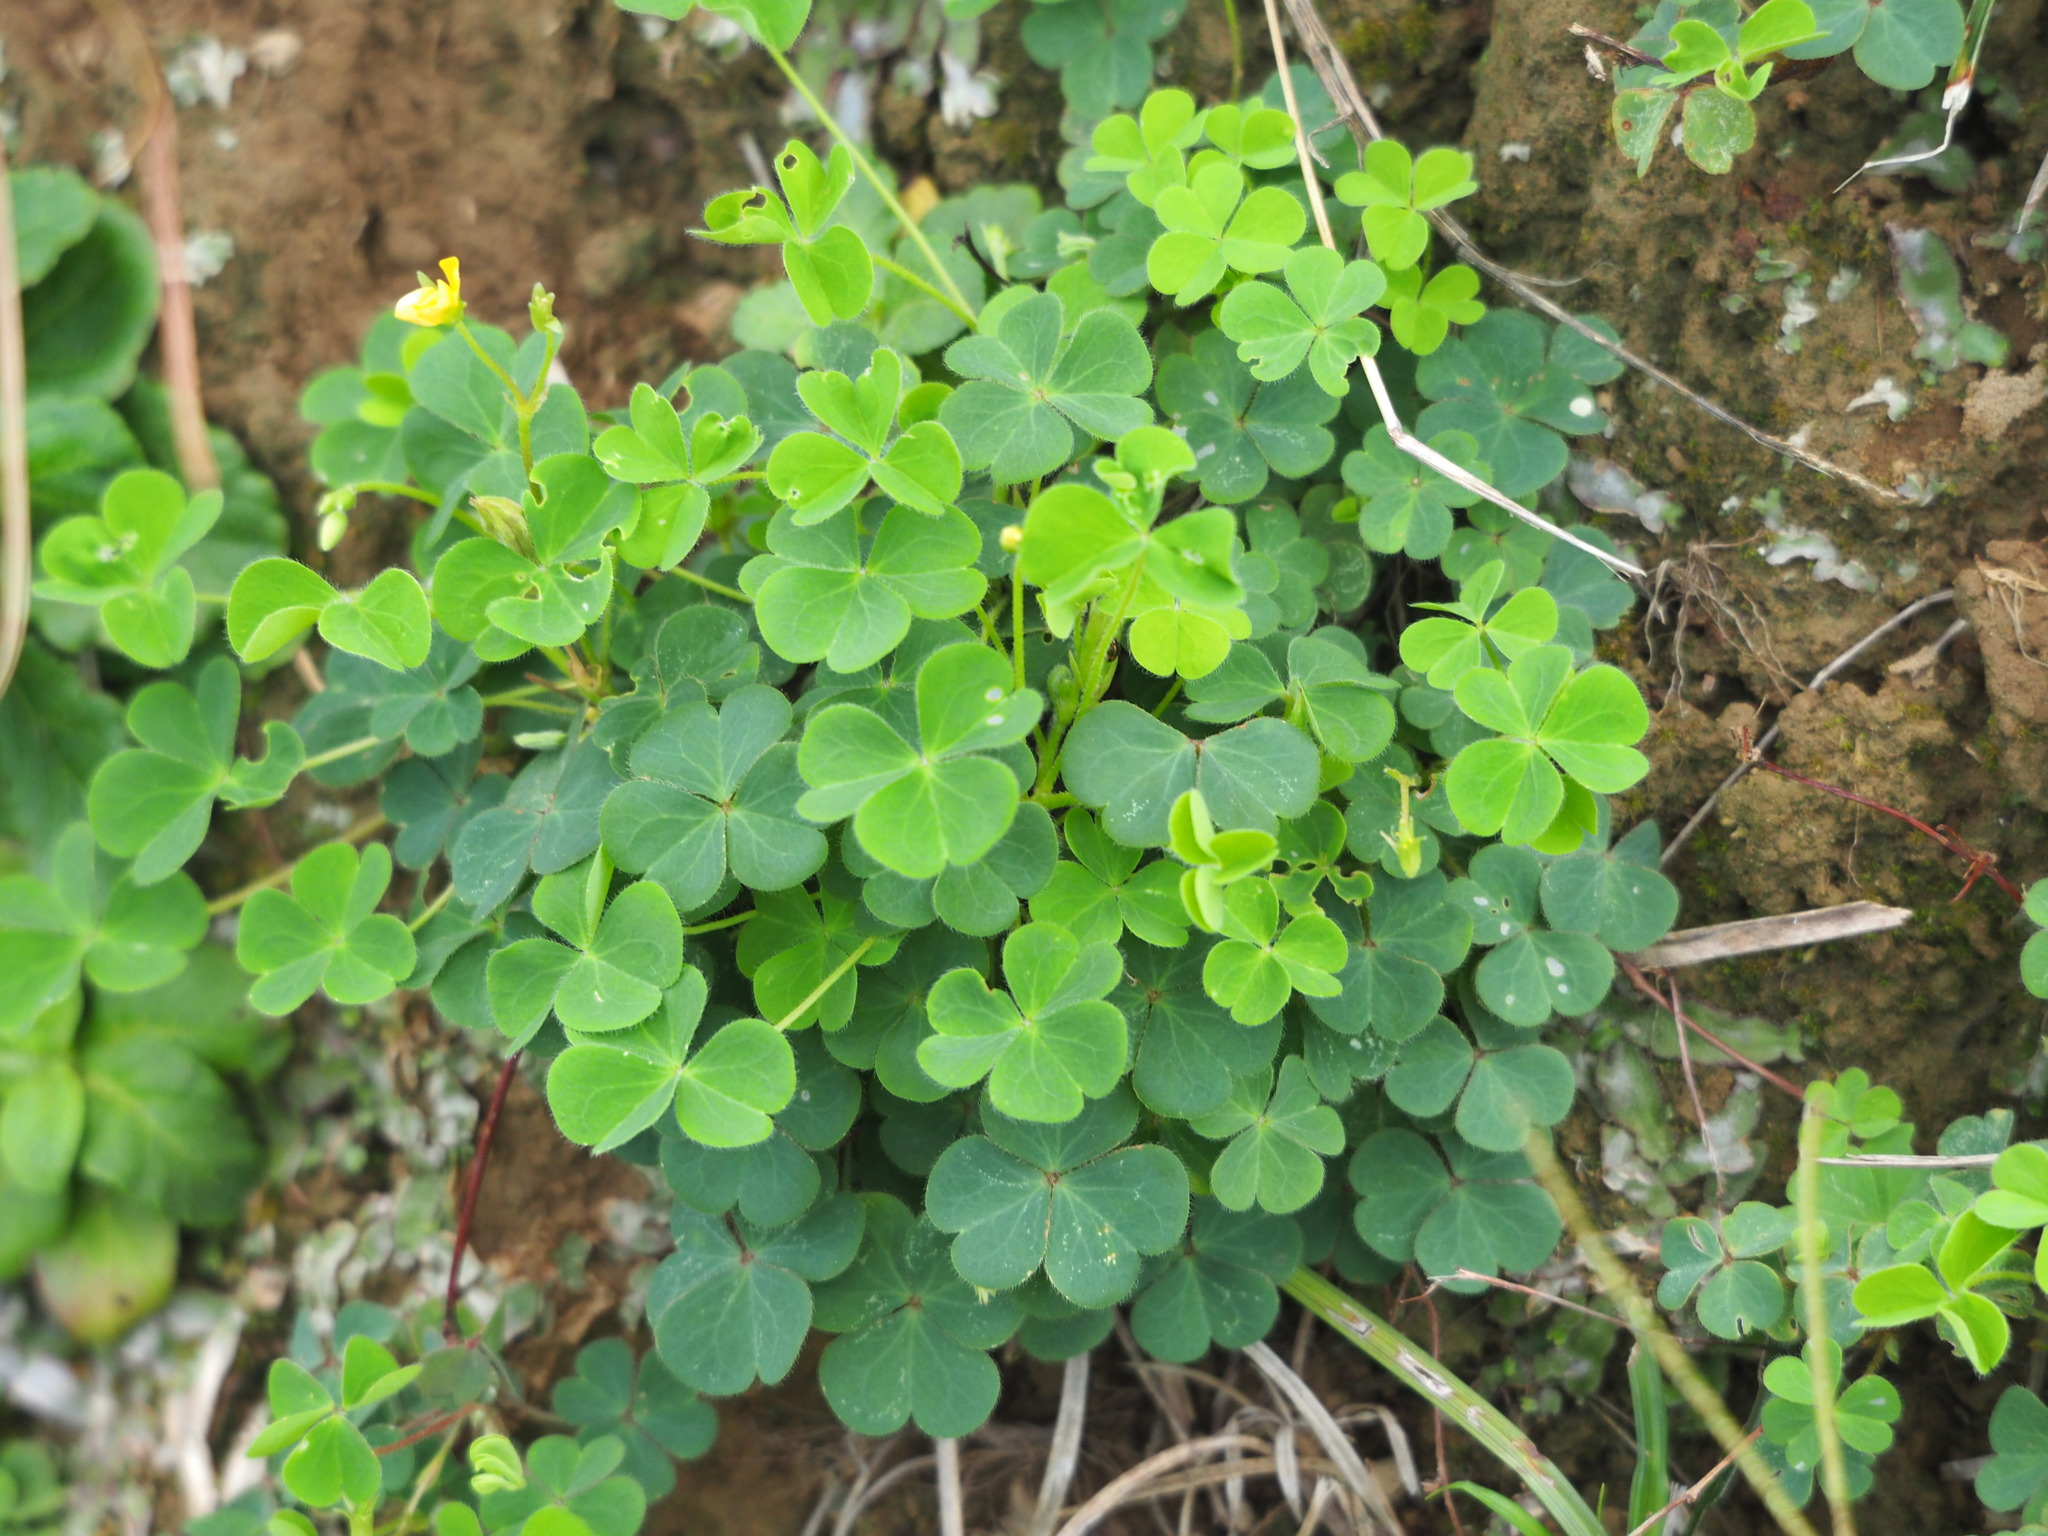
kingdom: Plantae
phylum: Tracheophyta
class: Magnoliopsida
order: Oxalidales
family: Oxalidaceae
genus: Oxalis
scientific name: Oxalis corniculata
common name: Procumbent yellow-sorrel
